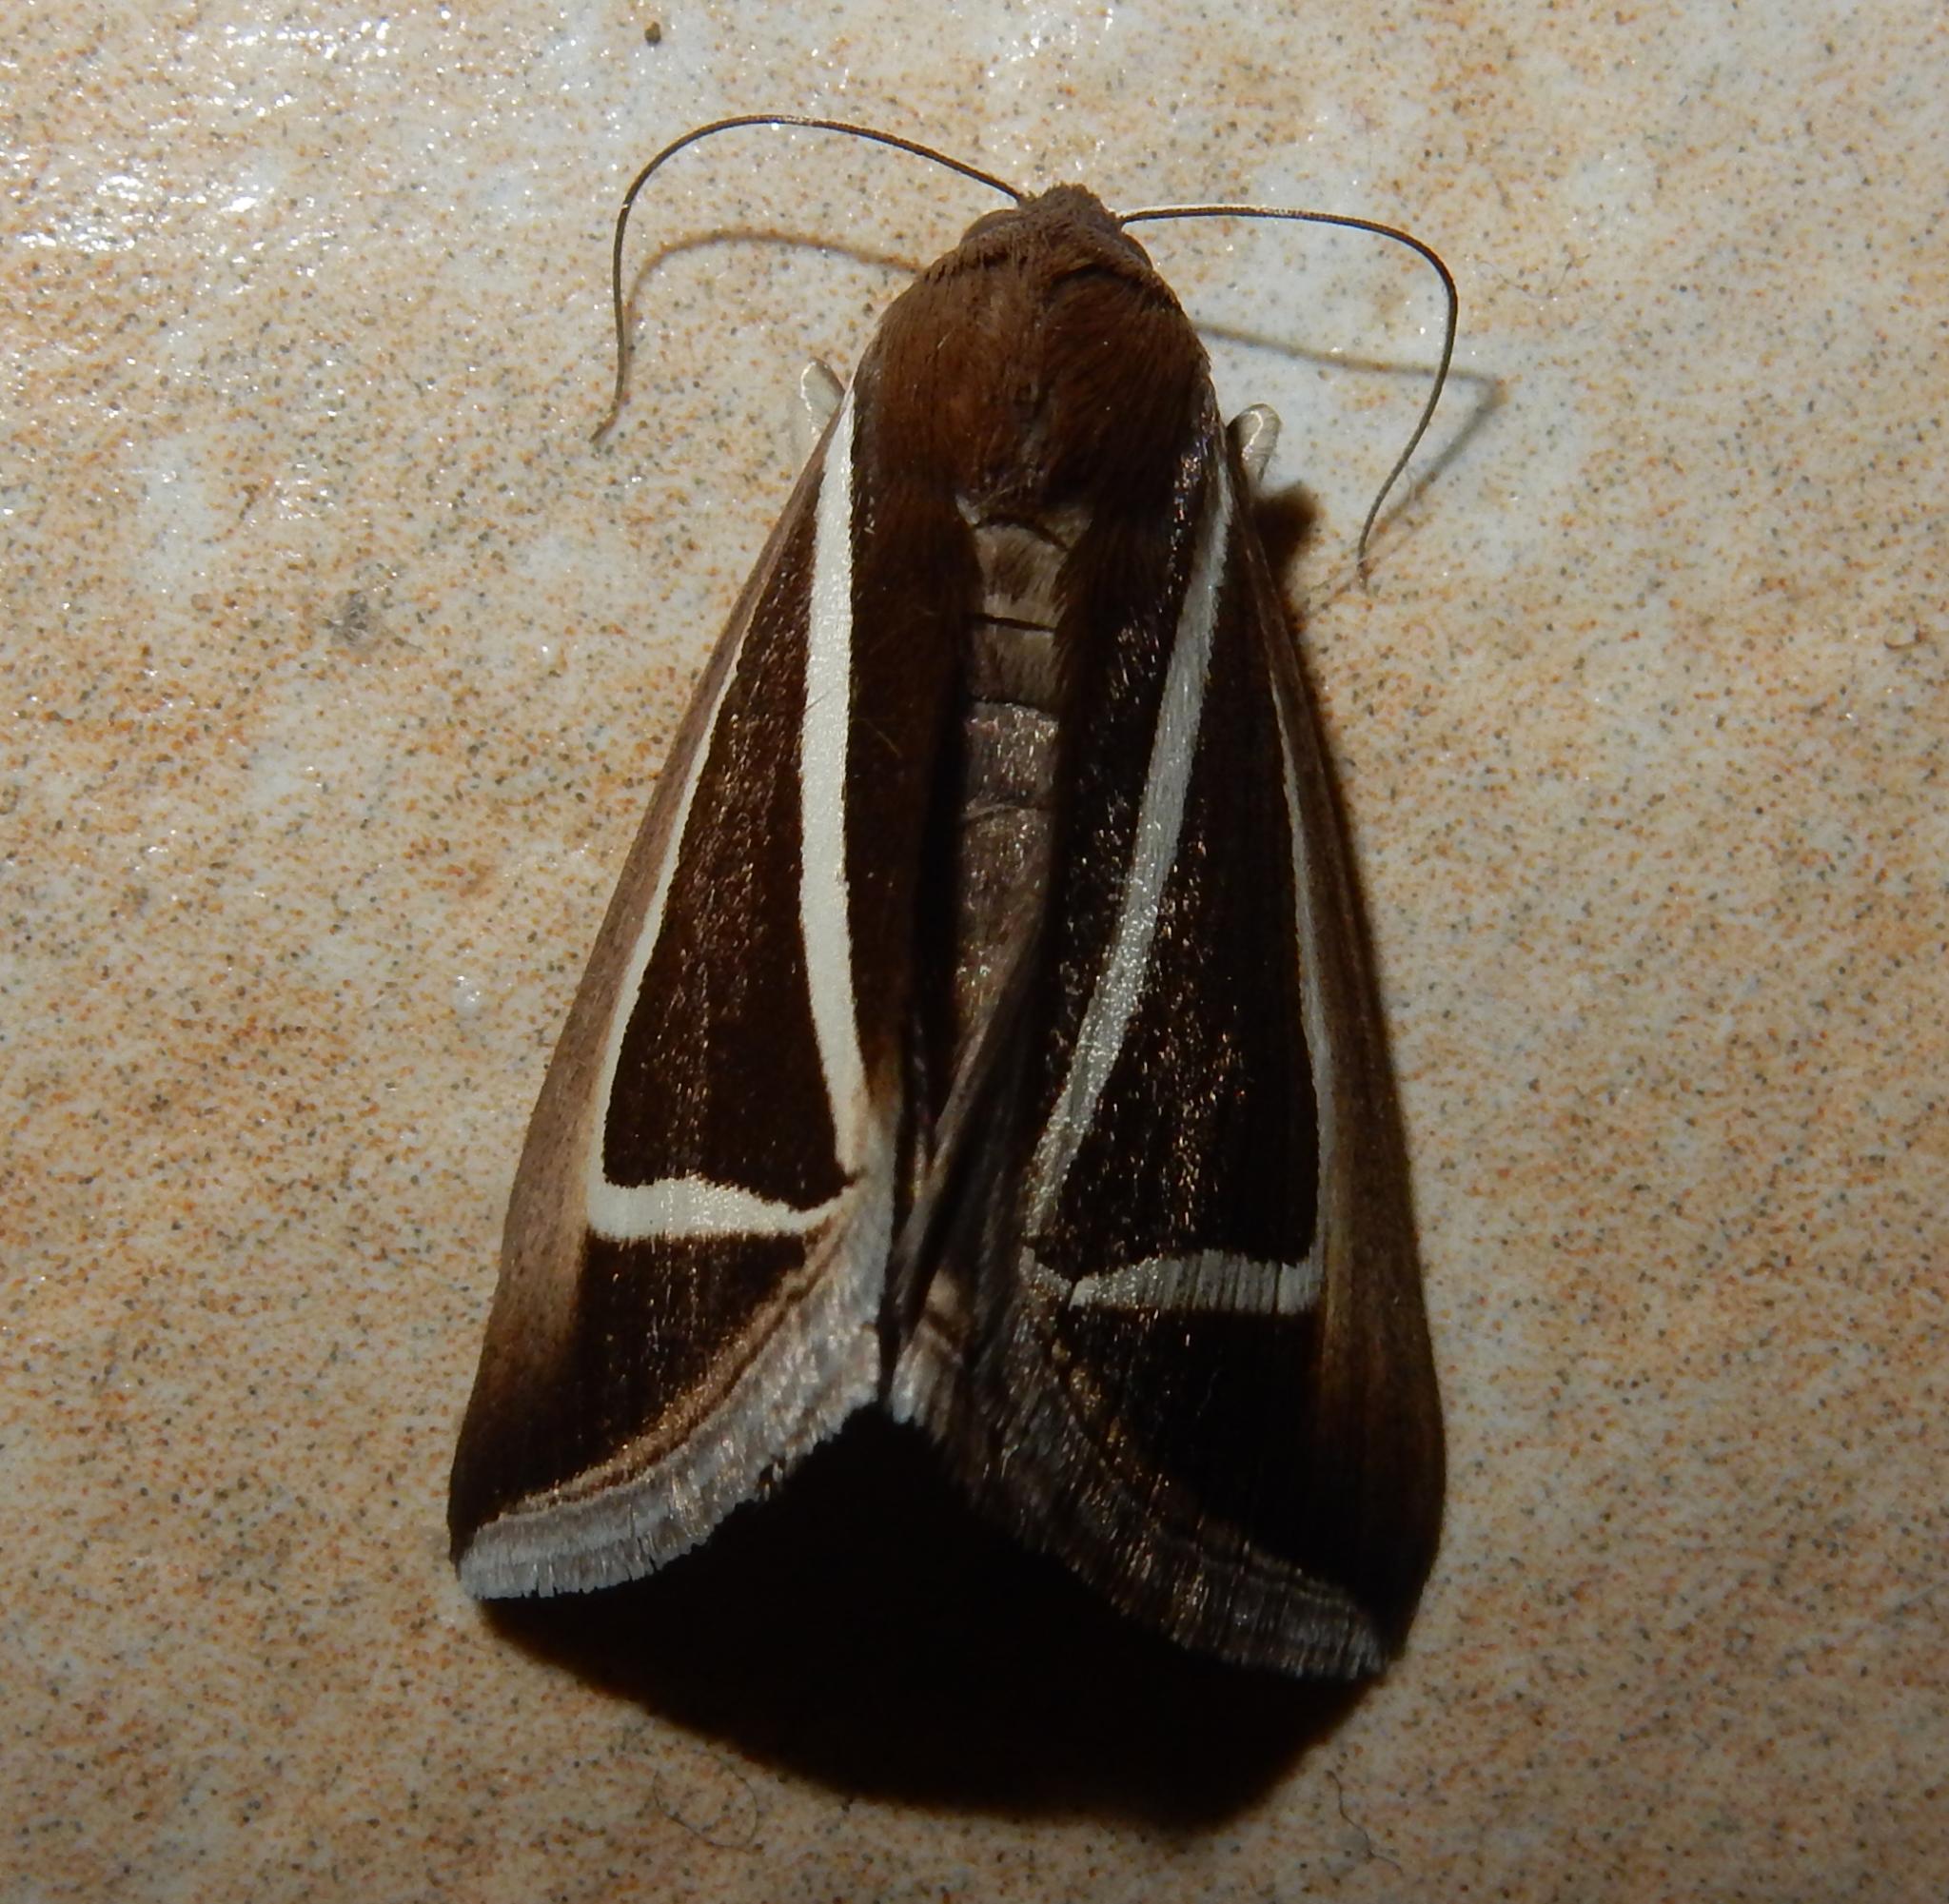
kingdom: Animalia
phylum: Arthropoda
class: Insecta
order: Lepidoptera
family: Erebidae
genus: Chalciope
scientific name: Chalciope delta
